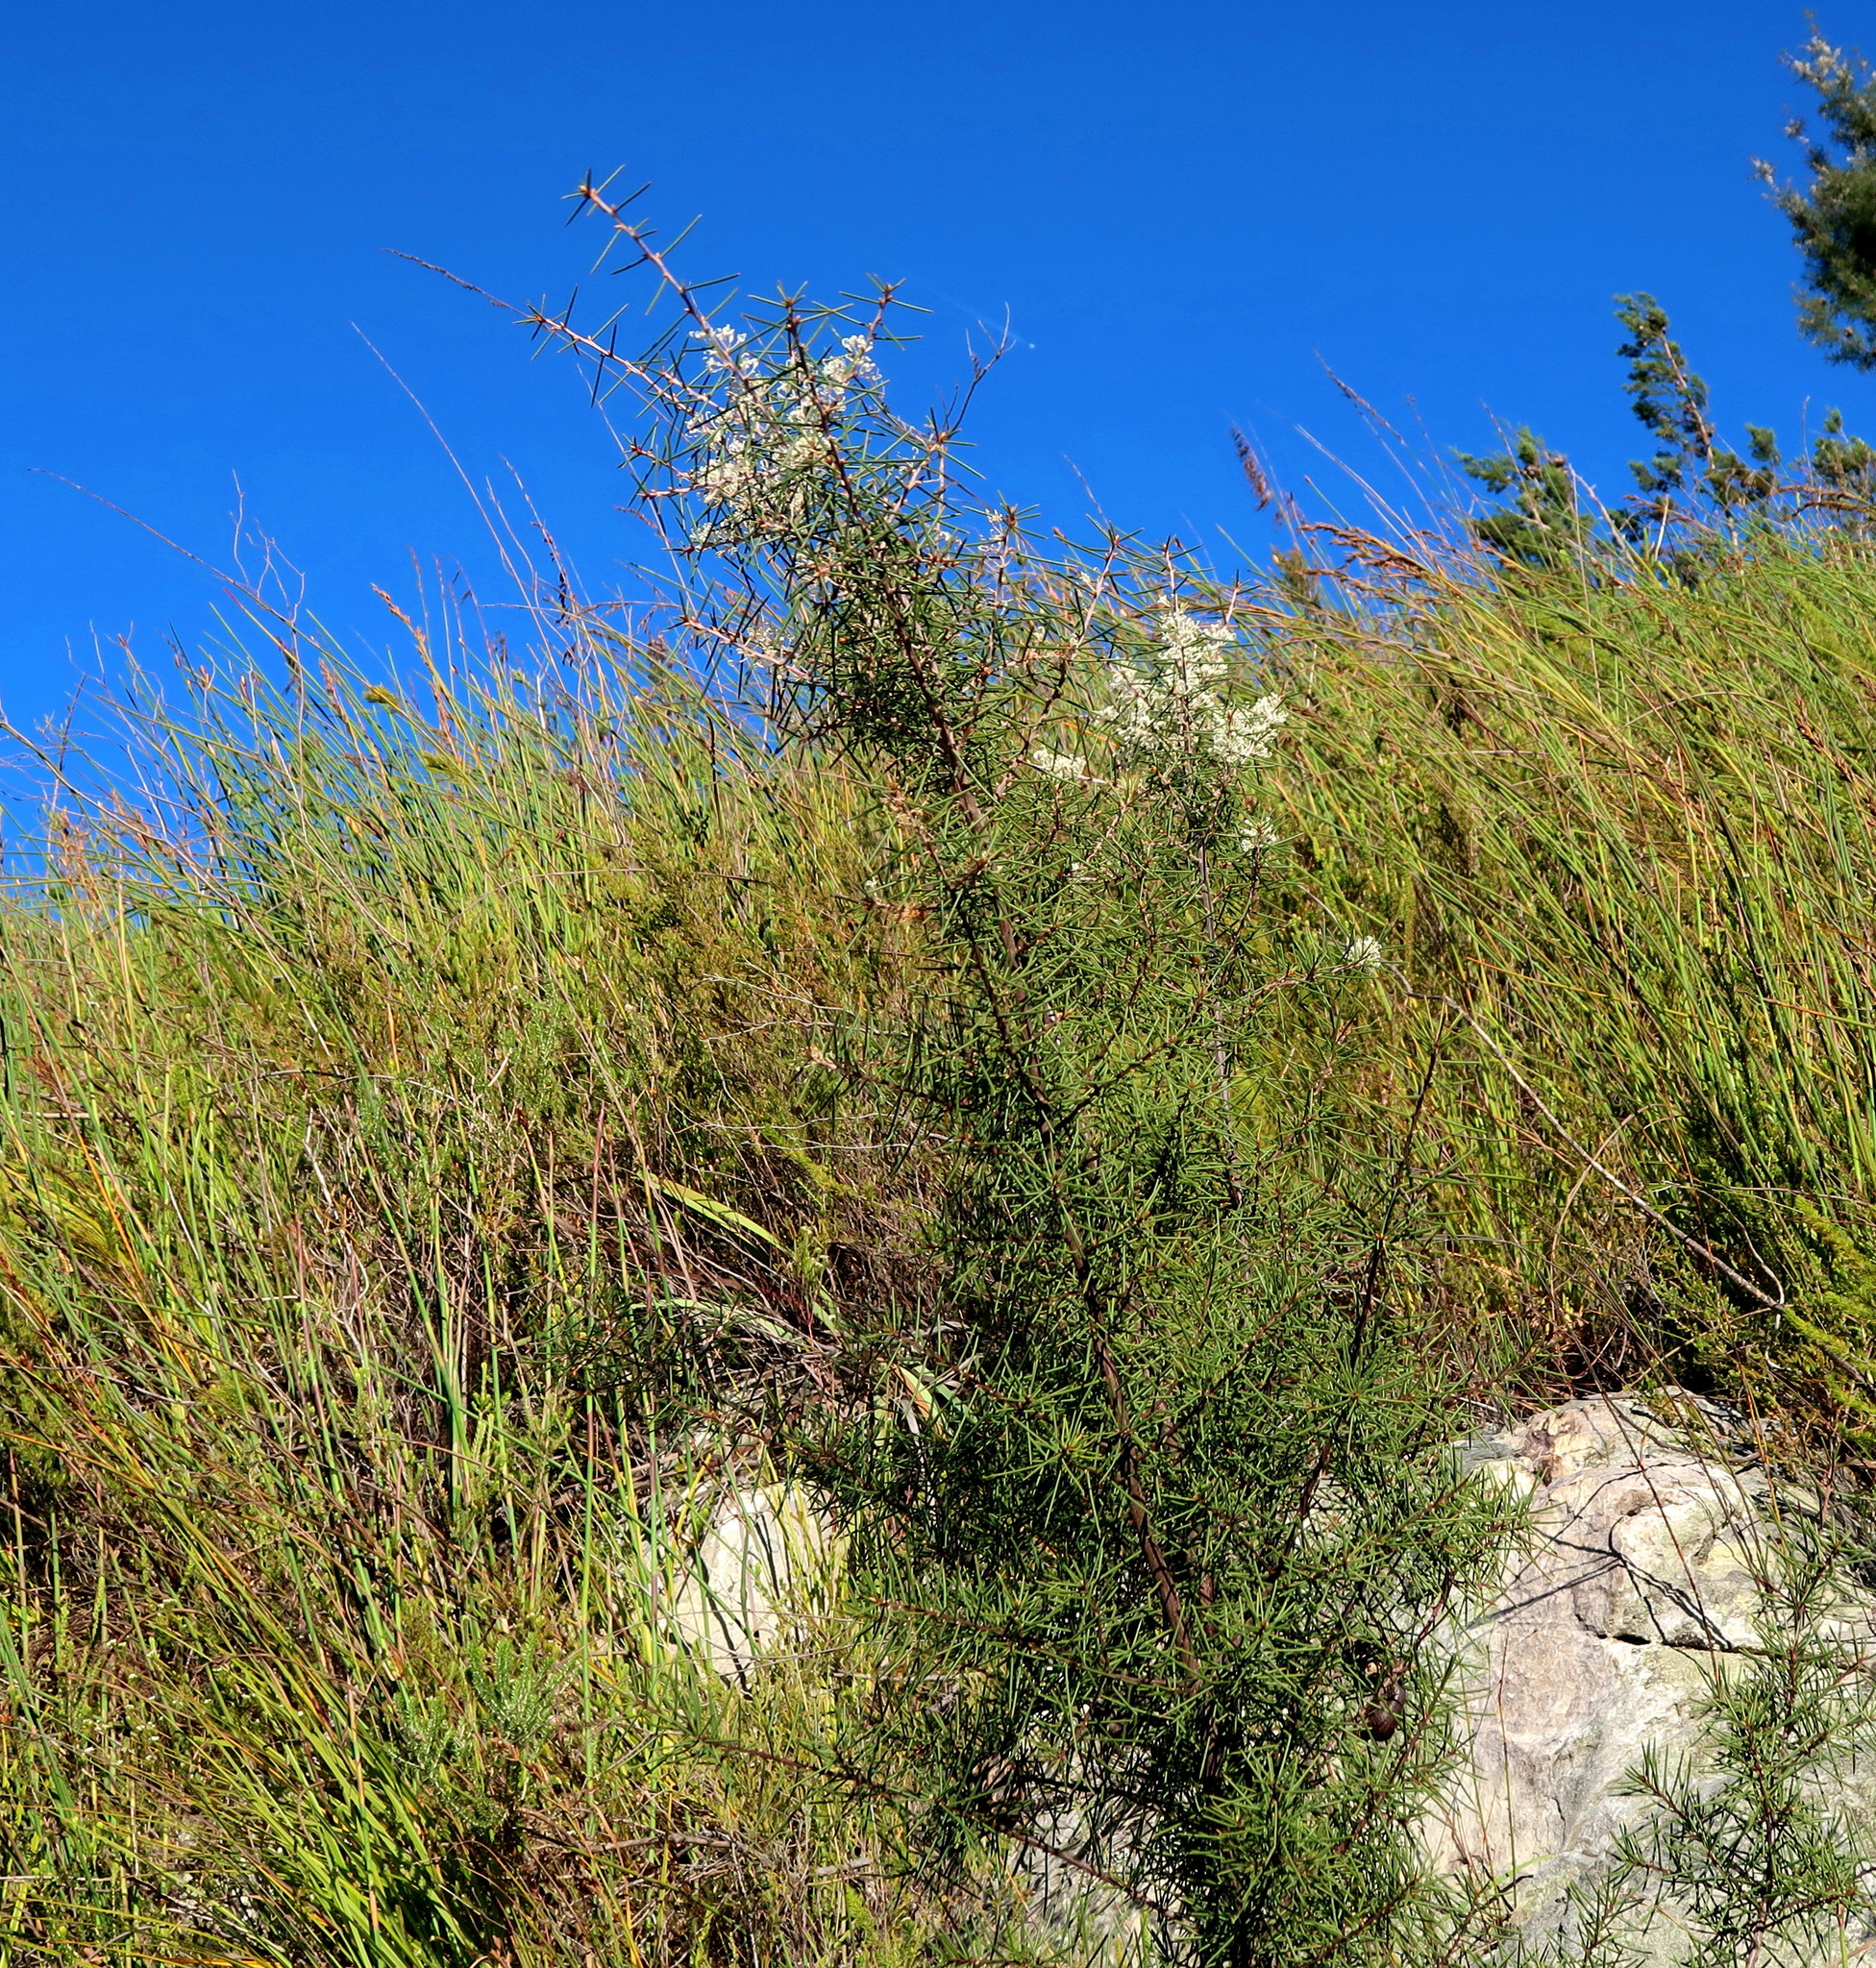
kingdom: Plantae
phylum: Tracheophyta
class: Magnoliopsida
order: Proteales
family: Proteaceae
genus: Hakea
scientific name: Hakea sericea
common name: Needle bush
